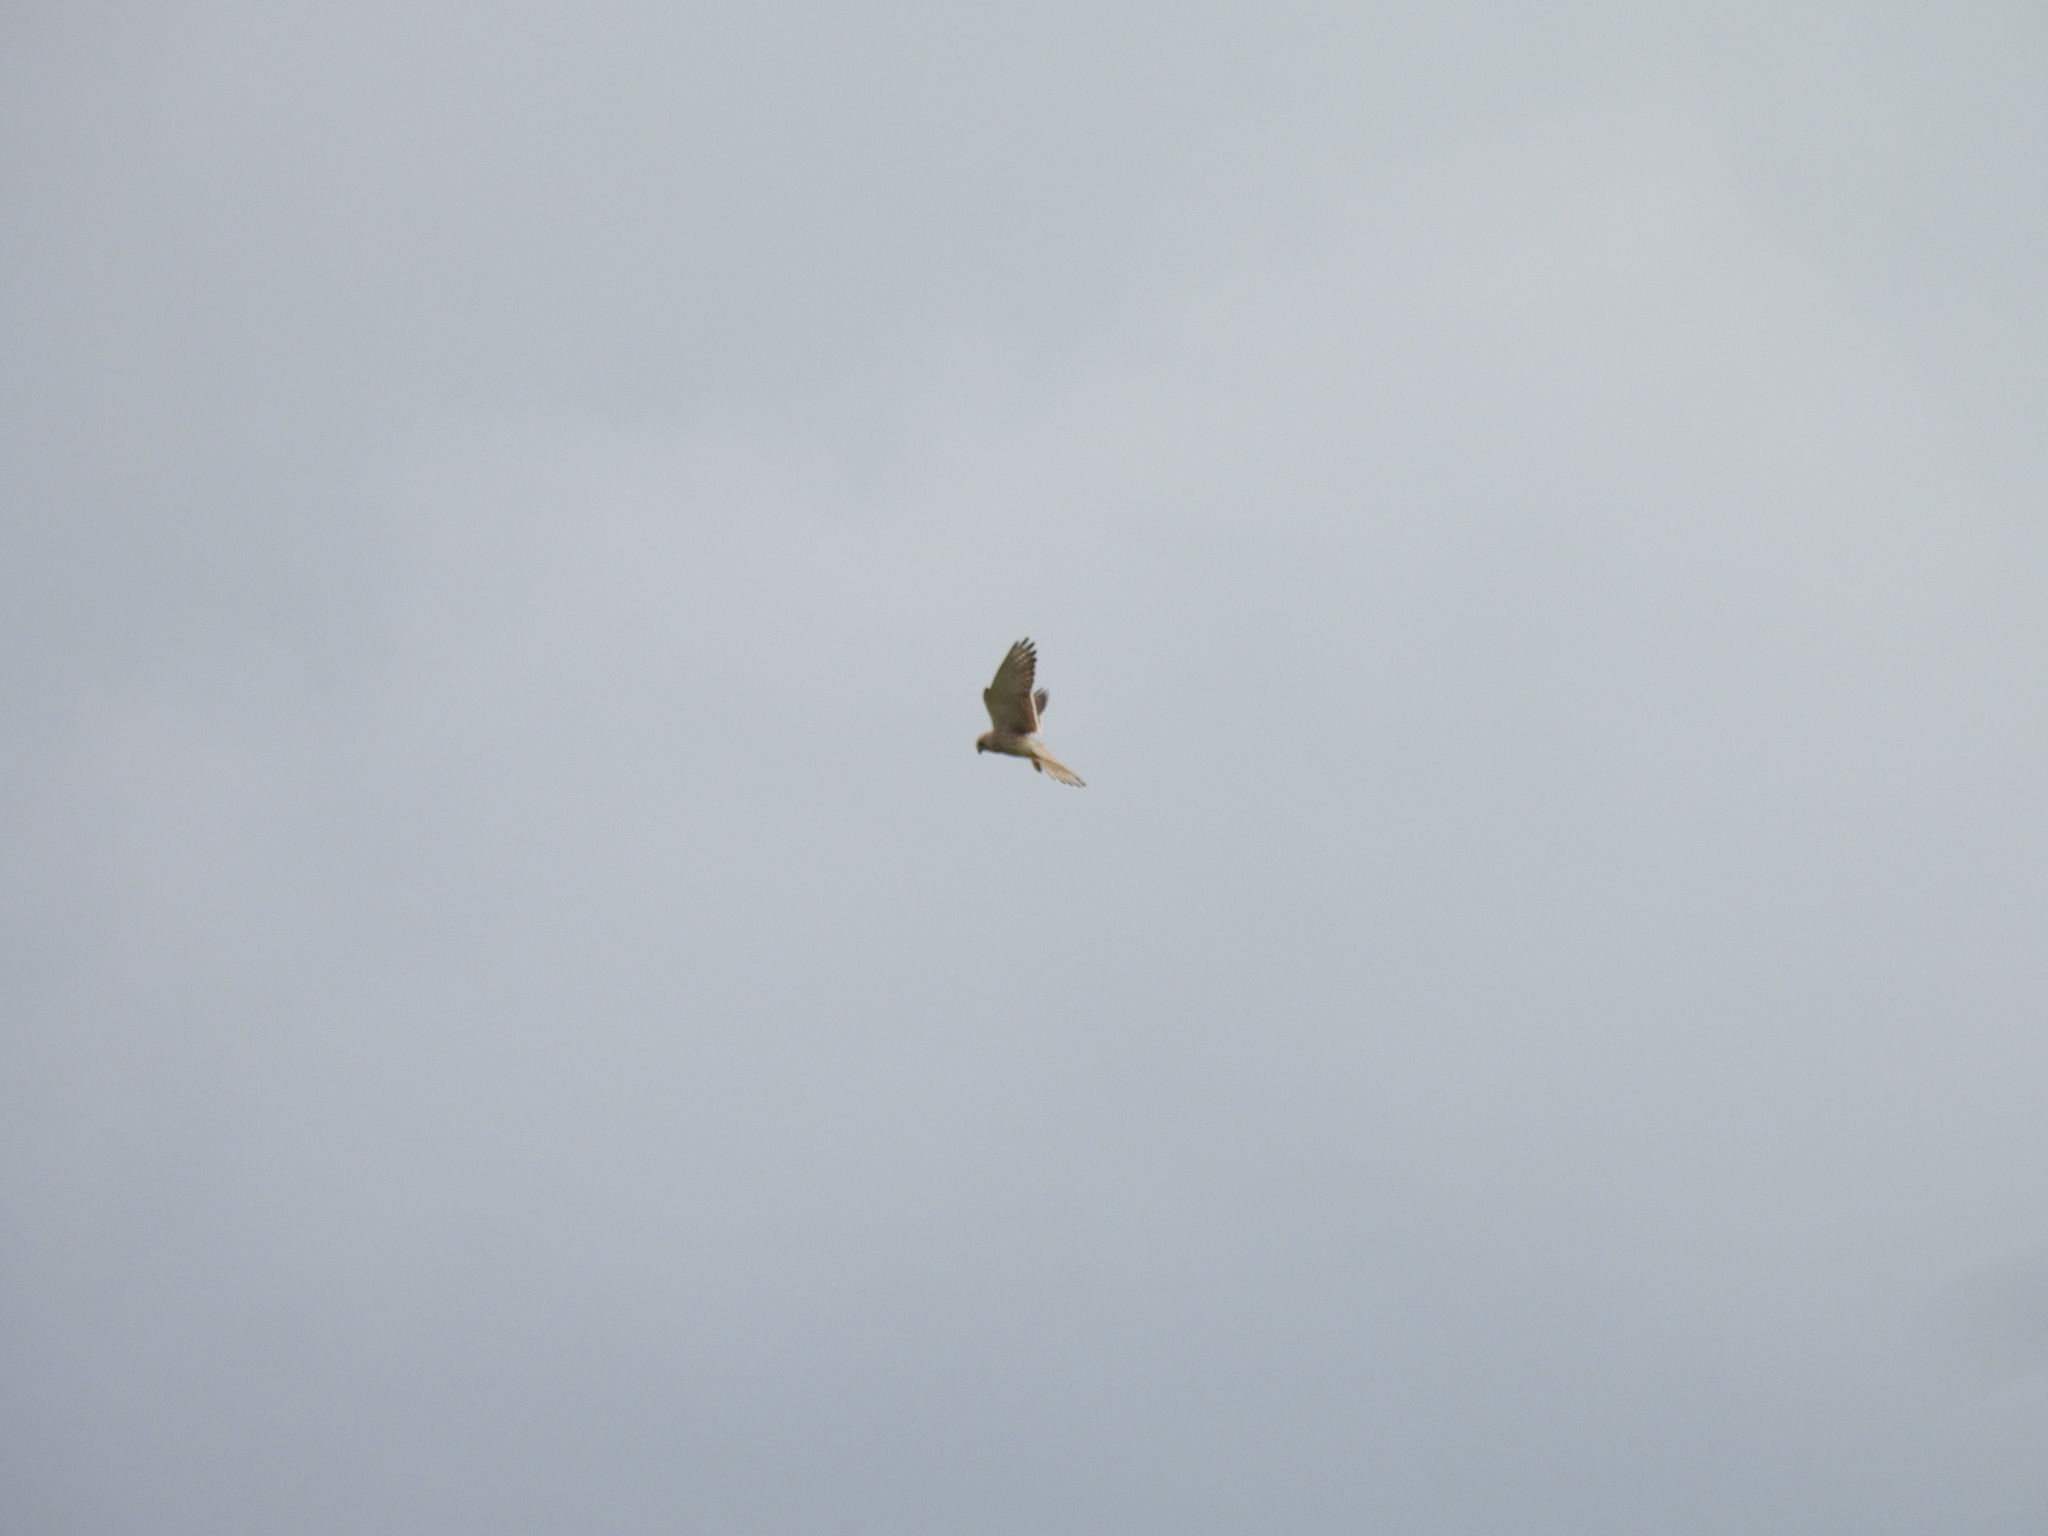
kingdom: Animalia
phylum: Chordata
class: Aves
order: Falconiformes
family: Falconidae
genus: Falco
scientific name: Falco tinnunculus
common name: Common kestrel
